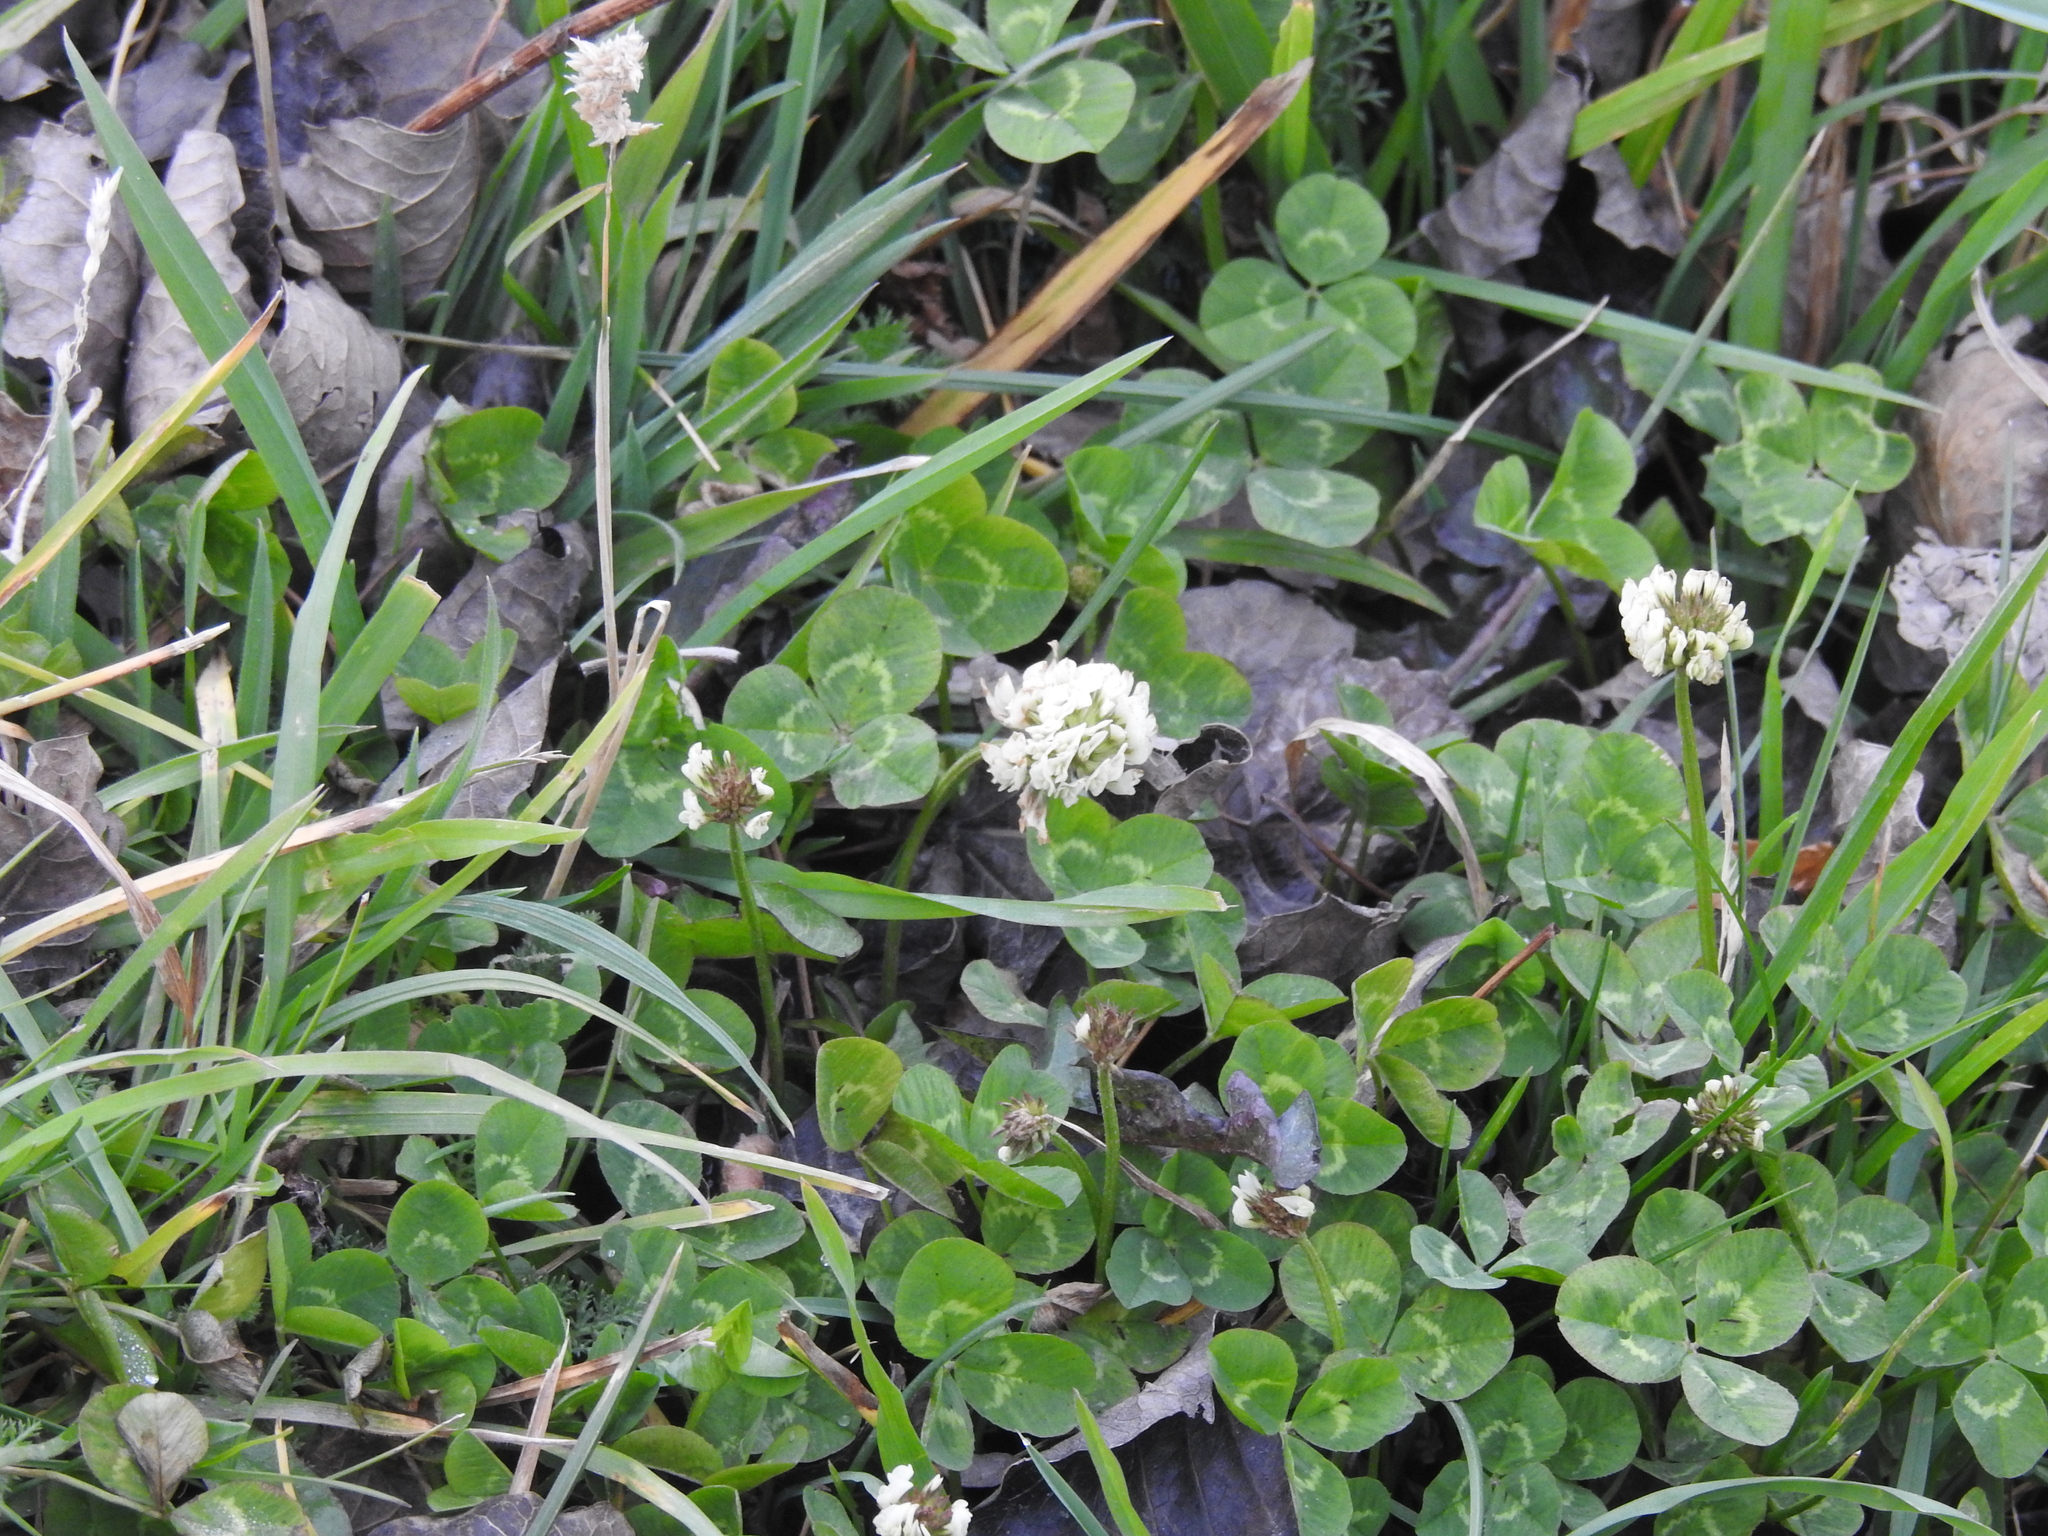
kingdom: Plantae
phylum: Tracheophyta
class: Magnoliopsida
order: Fabales
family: Fabaceae
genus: Trifolium
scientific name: Trifolium repens
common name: White clover
